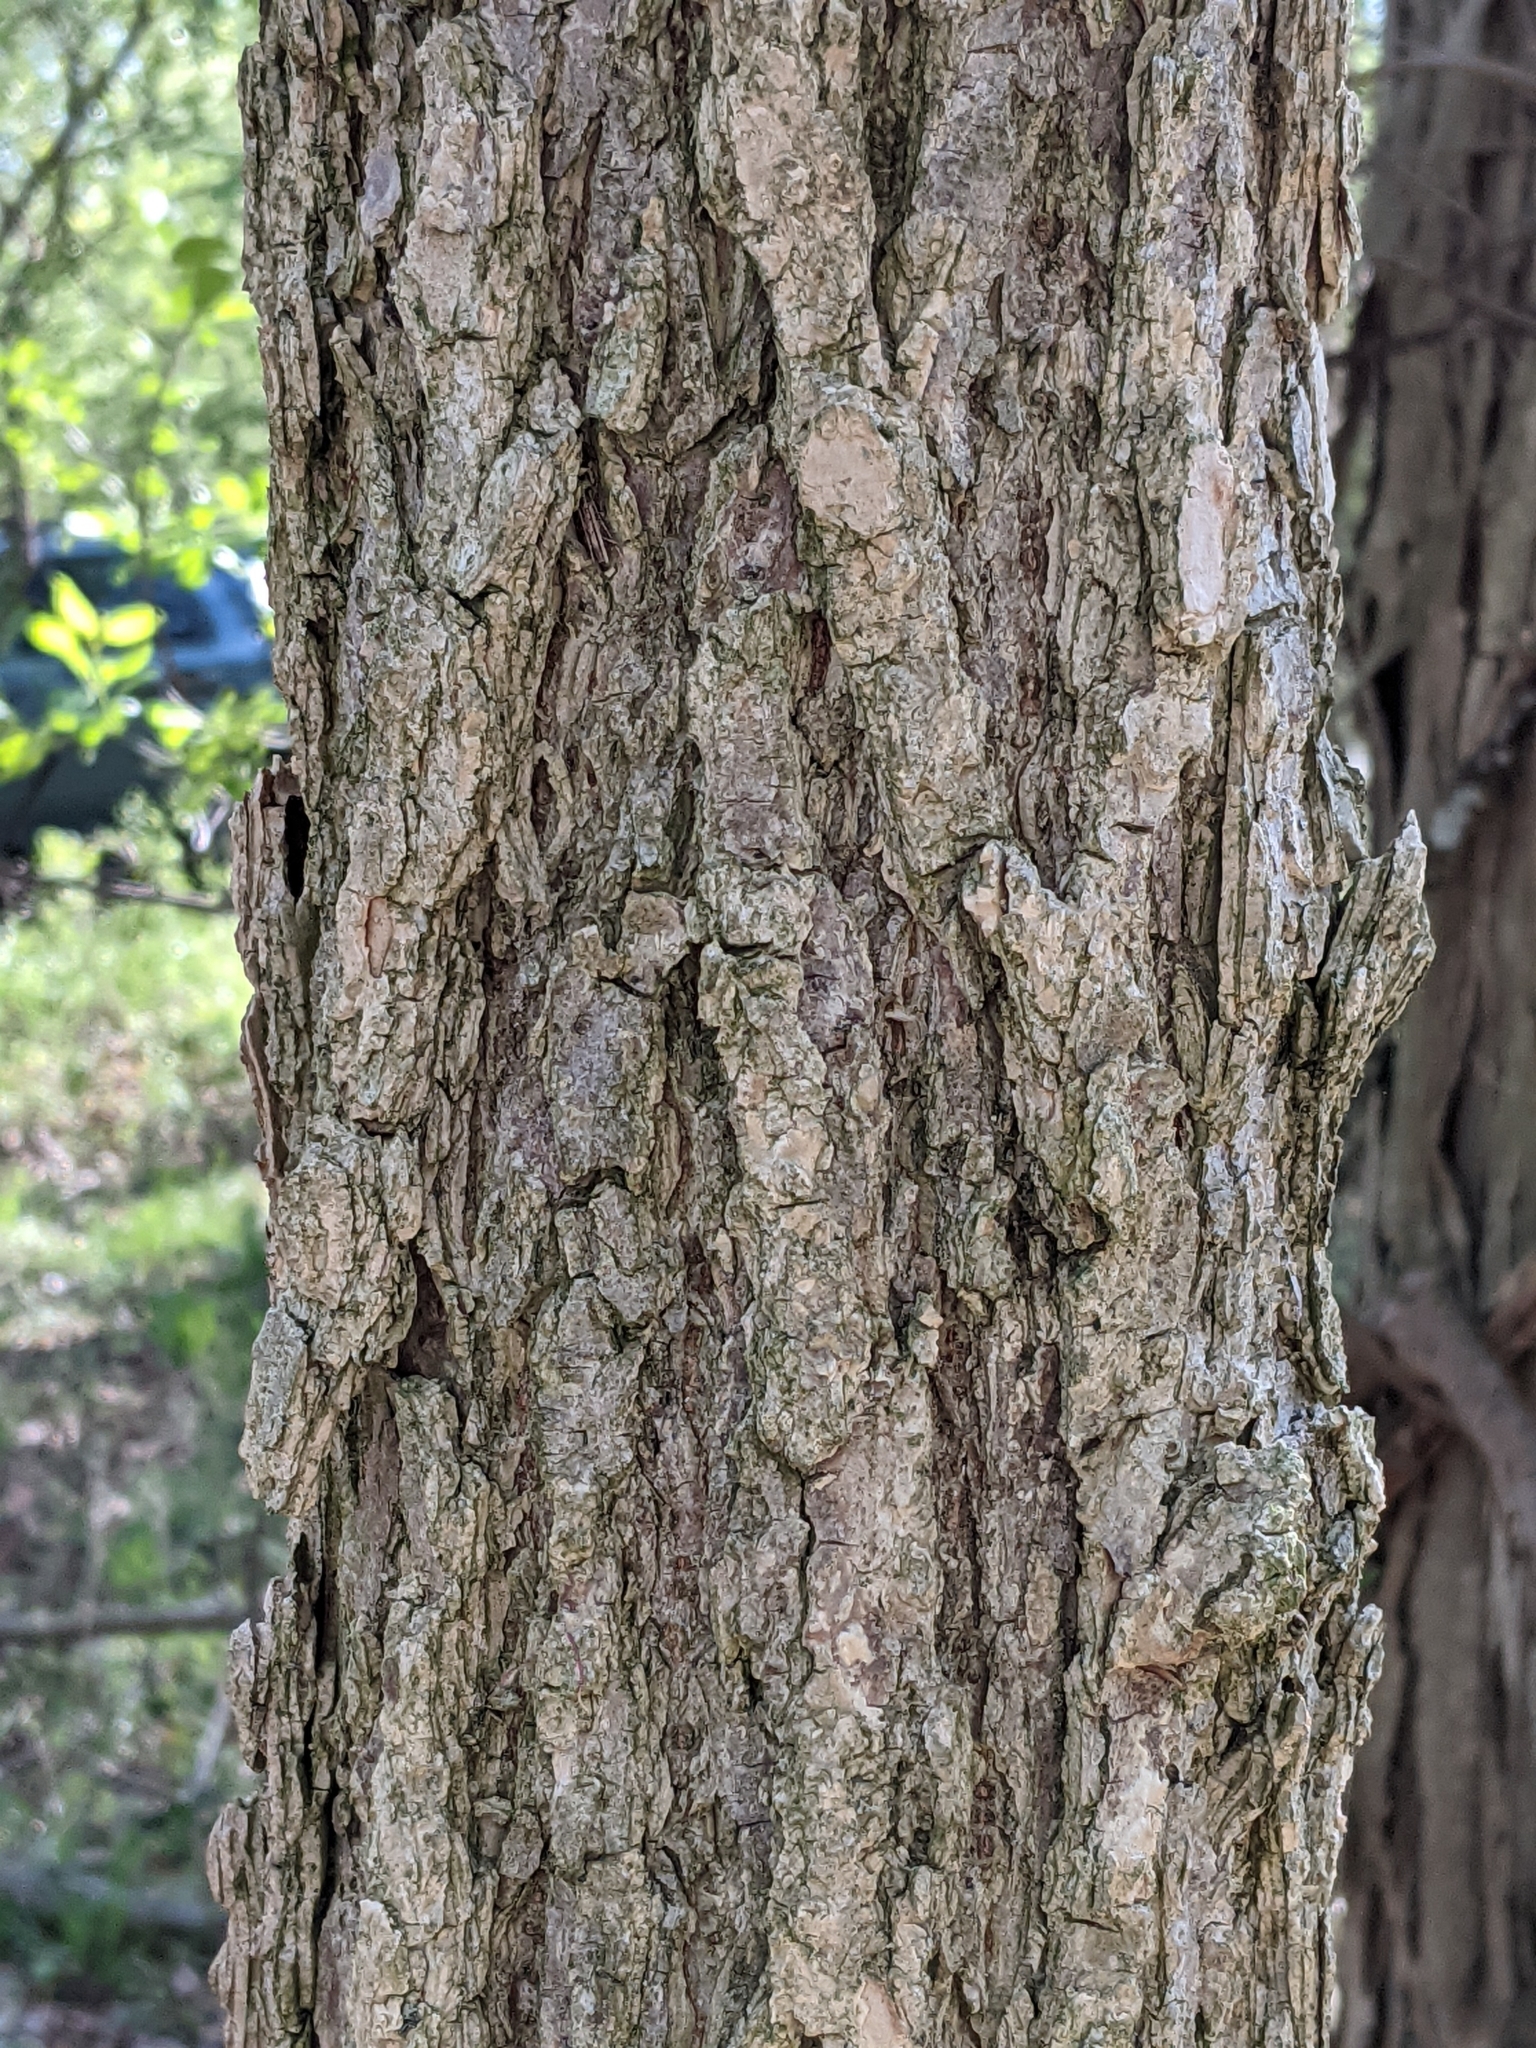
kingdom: Plantae
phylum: Tracheophyta
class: Magnoliopsida
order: Rosales
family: Ulmaceae
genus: Ulmus
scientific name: Ulmus americana
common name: American elm
